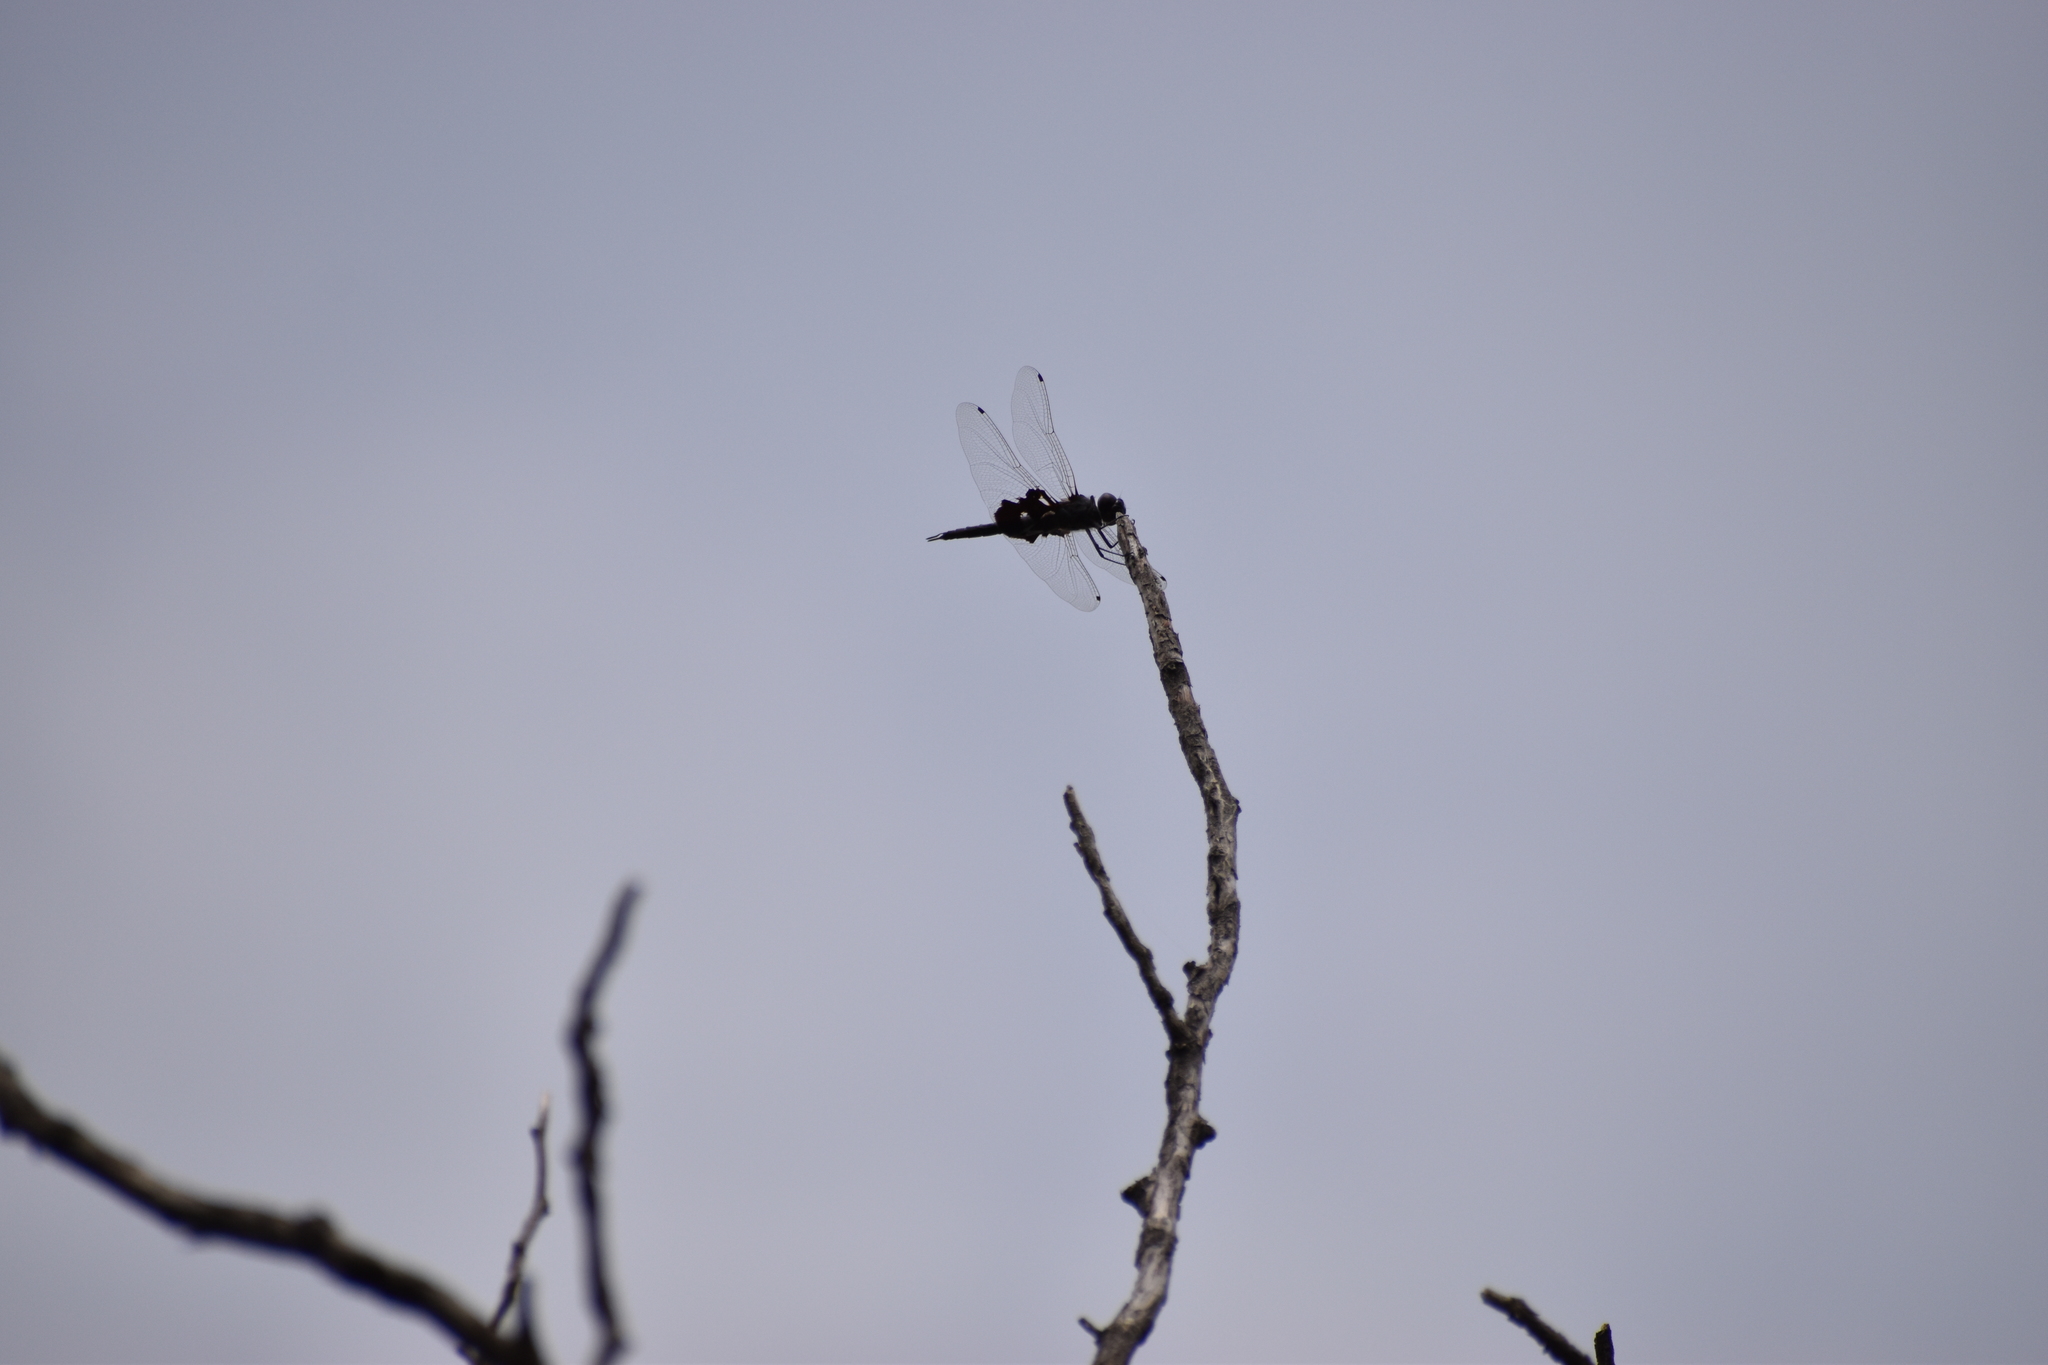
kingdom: Animalia
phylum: Arthropoda
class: Insecta
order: Odonata
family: Libellulidae
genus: Tramea
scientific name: Tramea lacerata
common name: Black saddlebags
